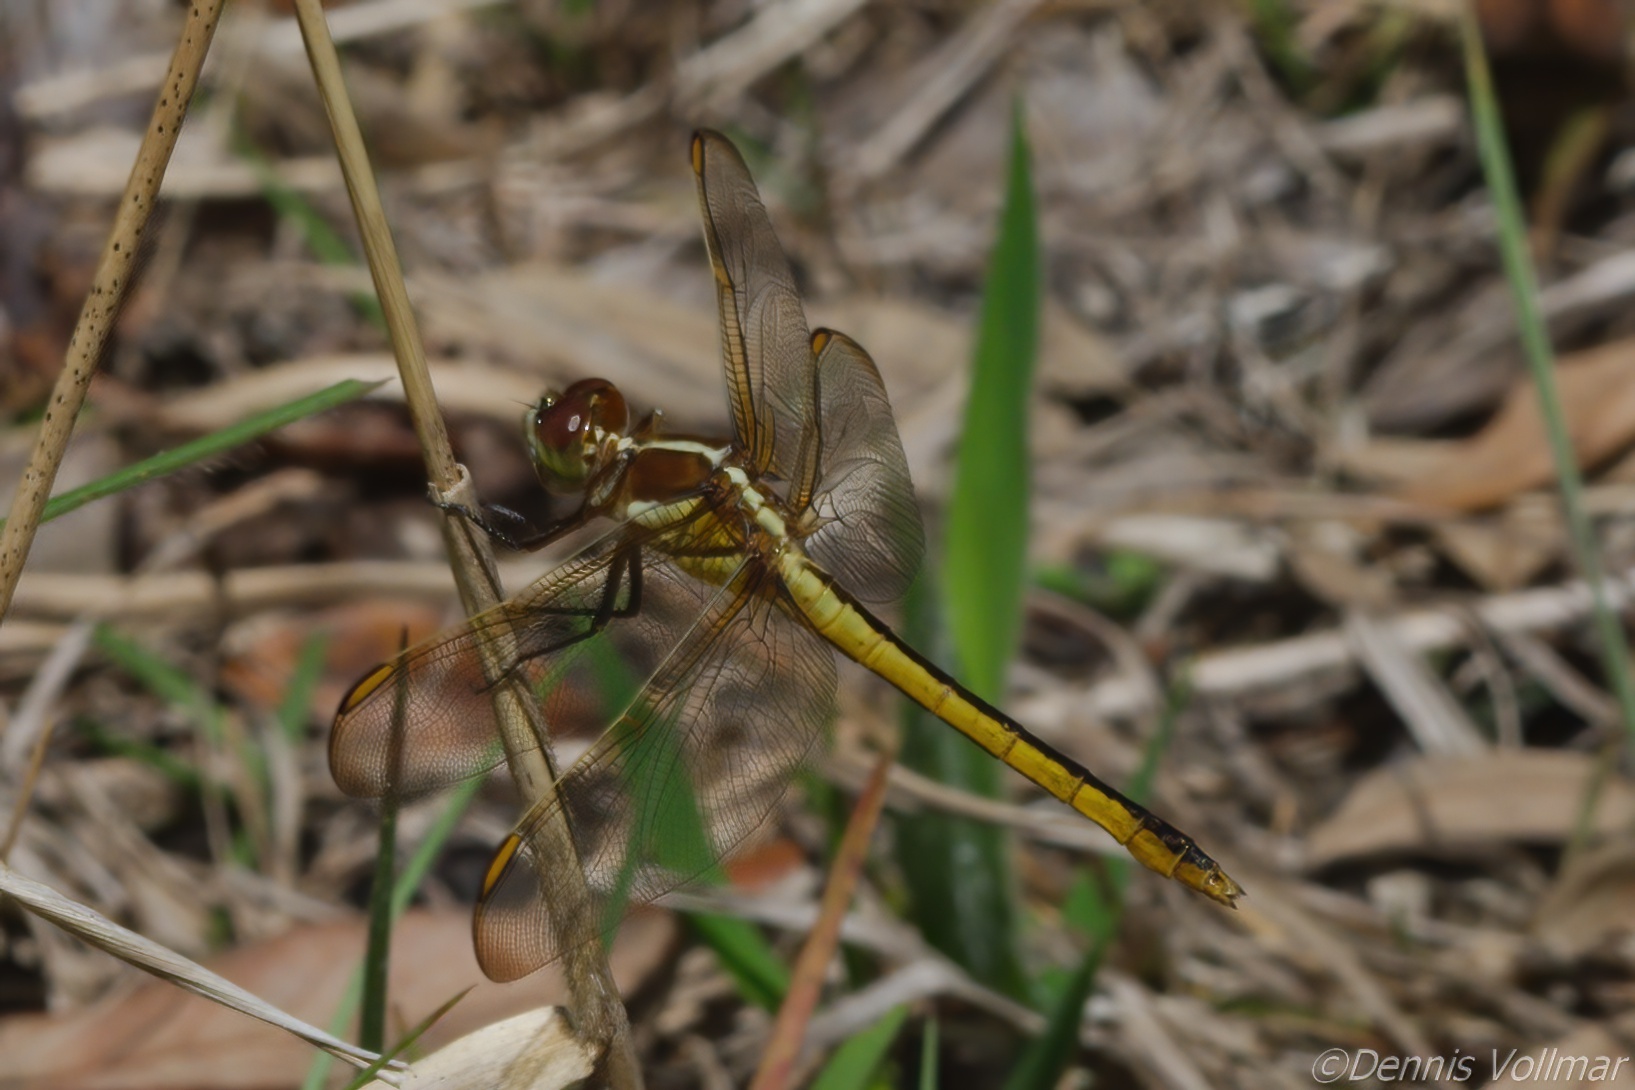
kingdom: Animalia
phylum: Arthropoda
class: Insecta
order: Odonata
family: Libellulidae
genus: Libellula
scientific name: Libellula auripennis
